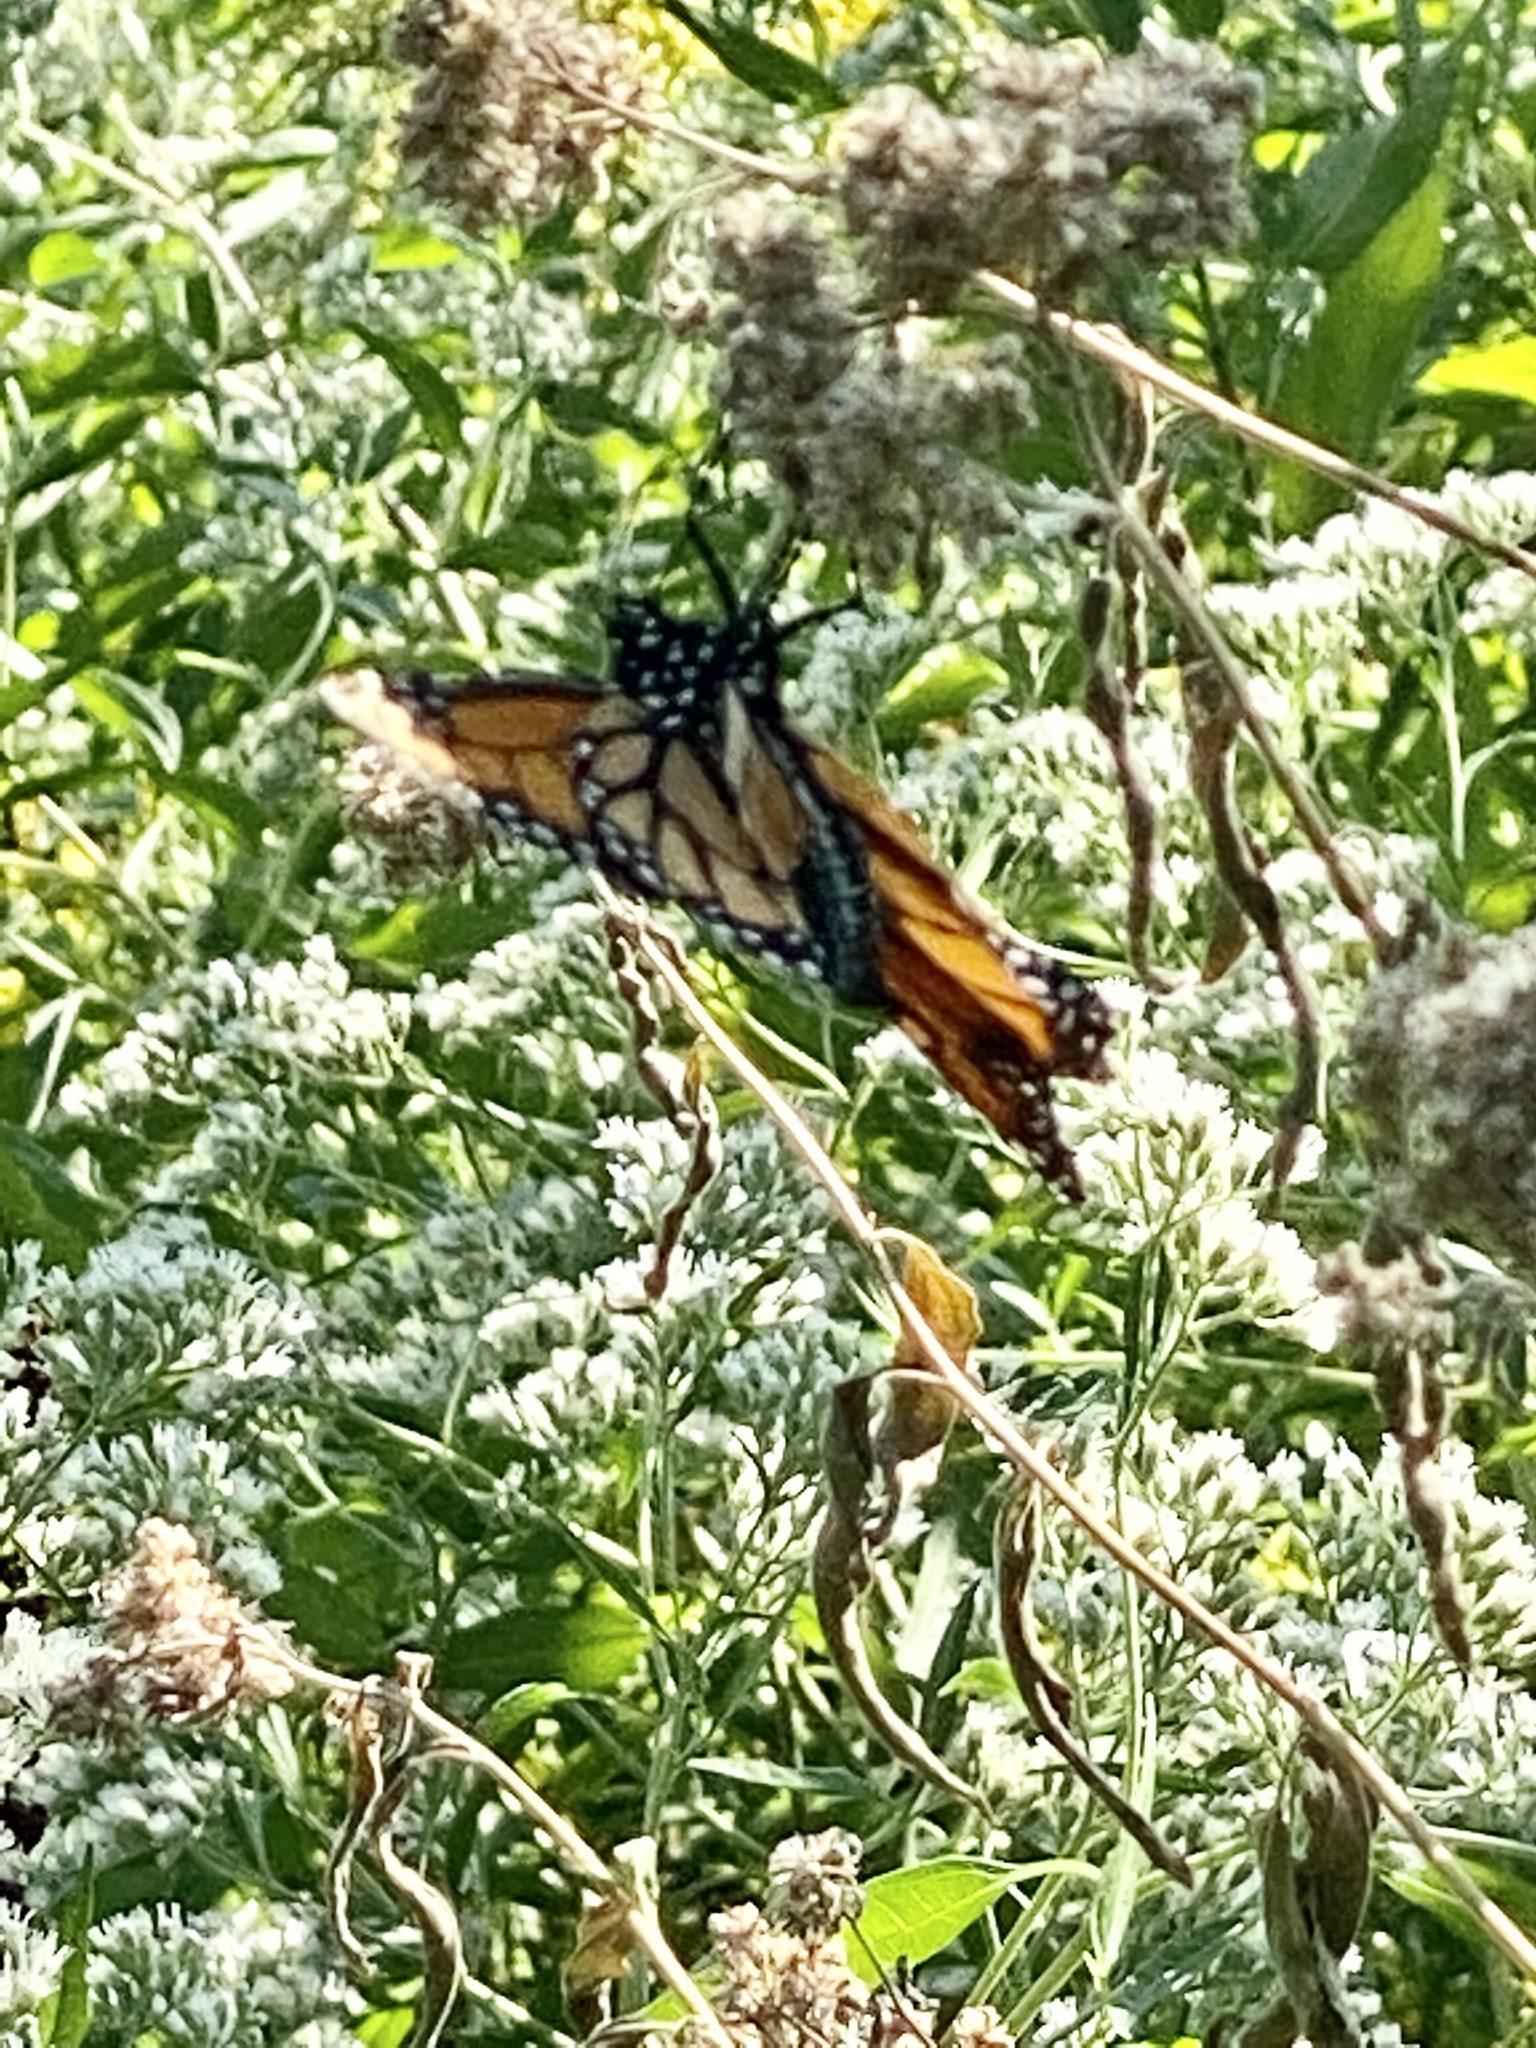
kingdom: Animalia
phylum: Arthropoda
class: Insecta
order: Lepidoptera
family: Nymphalidae
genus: Danaus
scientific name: Danaus plexippus
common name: Monarch
